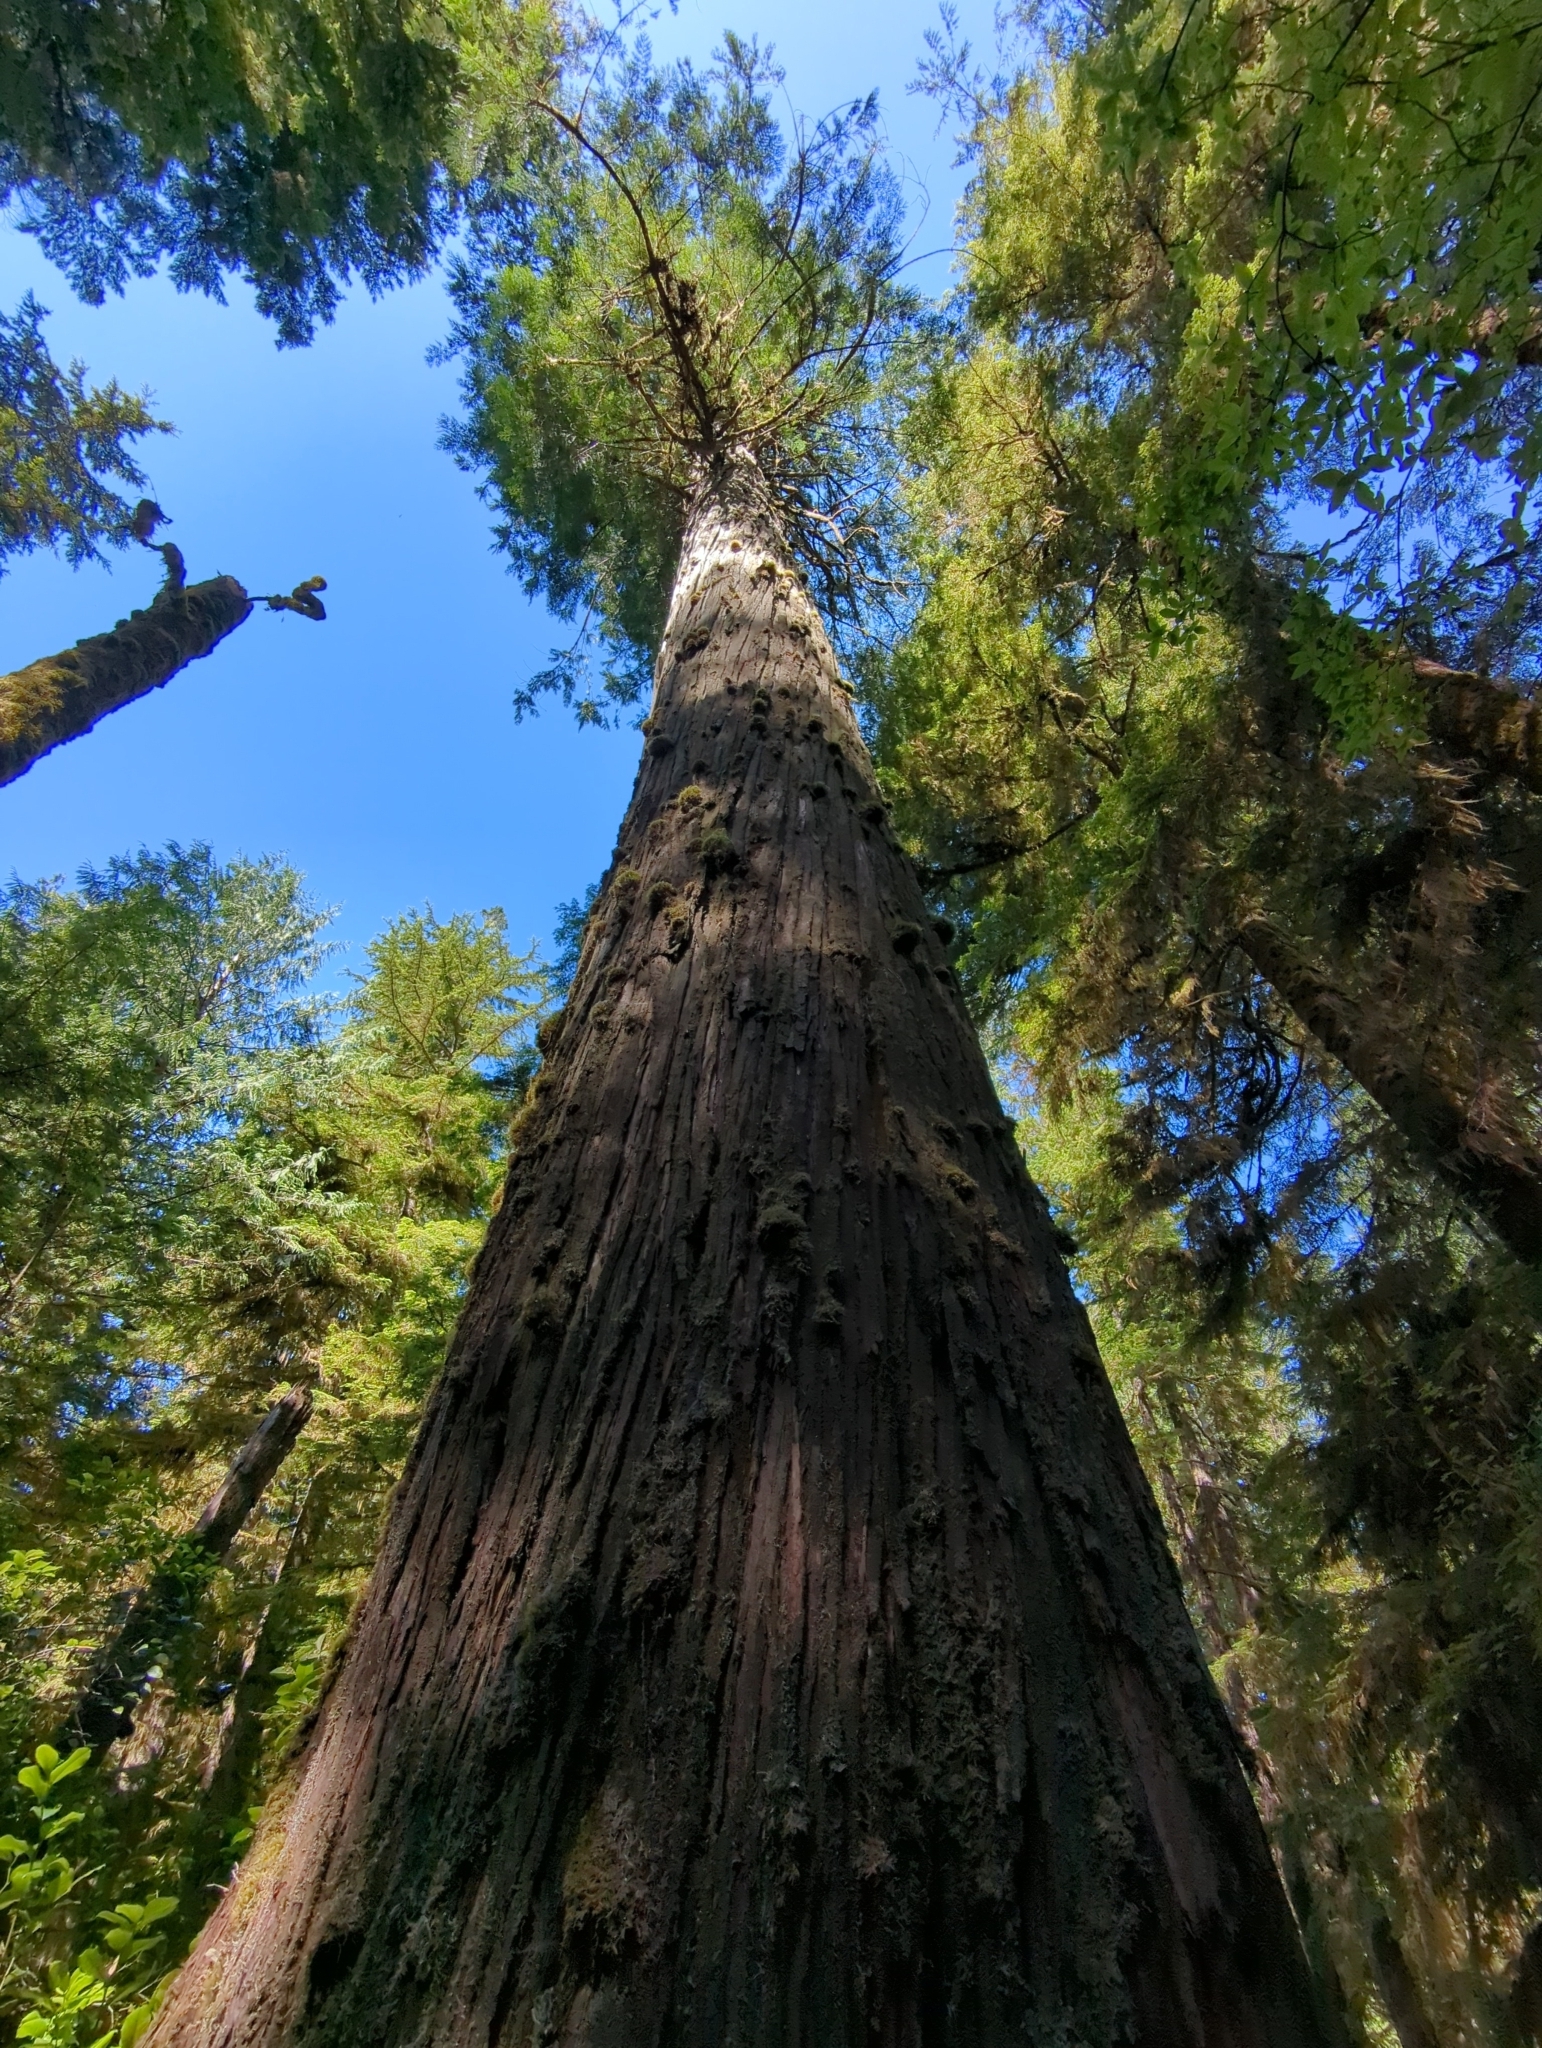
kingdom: Plantae
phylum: Tracheophyta
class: Pinopsida
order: Pinales
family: Cupressaceae
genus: Thuja
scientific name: Thuja plicata
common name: Western red-cedar
